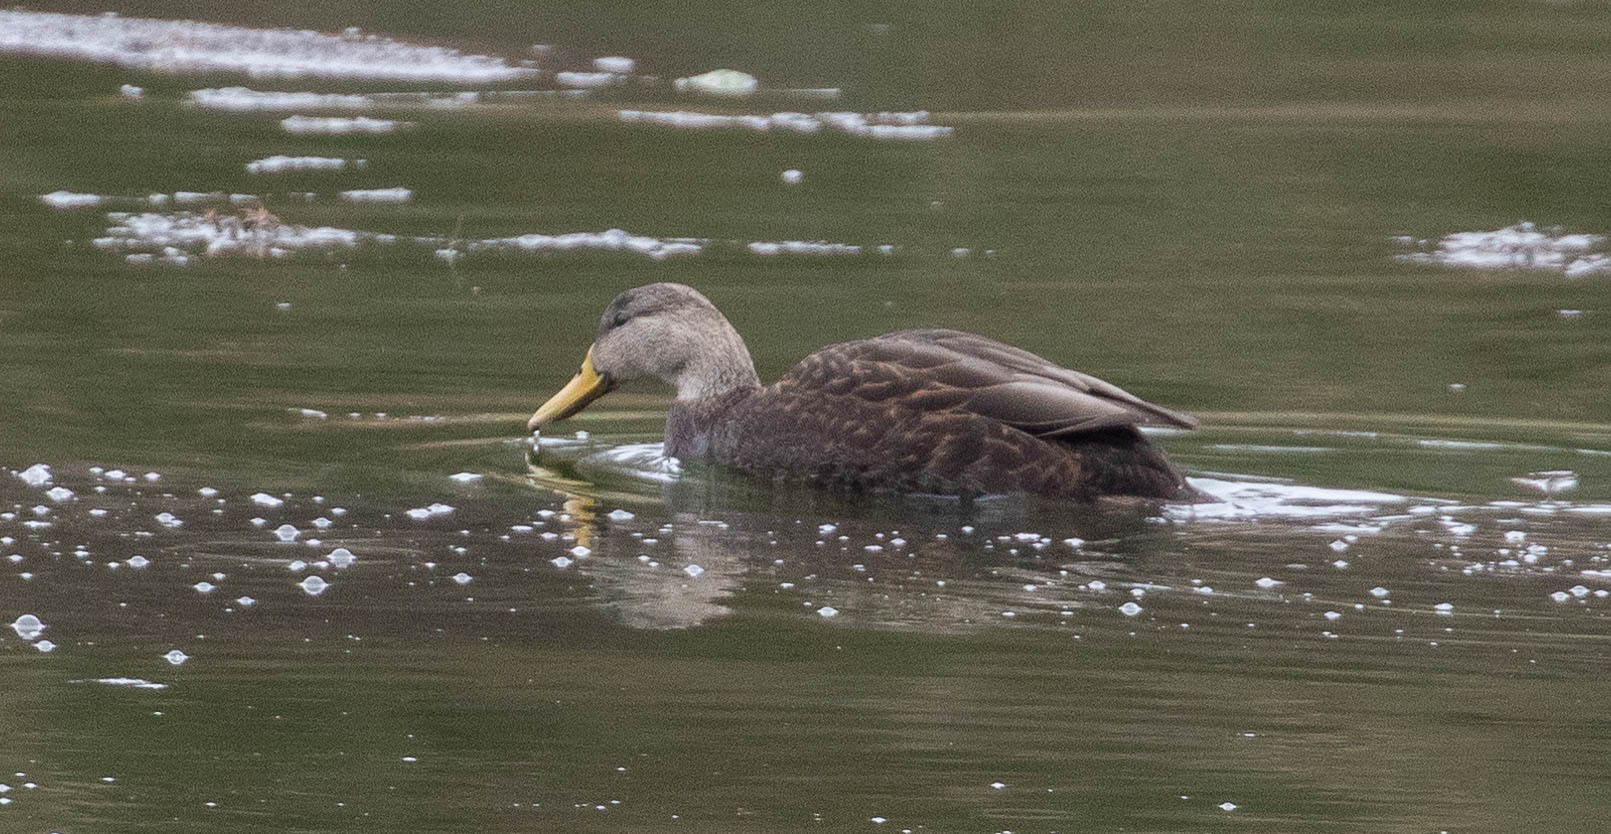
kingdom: Animalia
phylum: Chordata
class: Aves
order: Anseriformes
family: Anatidae
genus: Anas
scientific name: Anas rubripes
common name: American black duck
